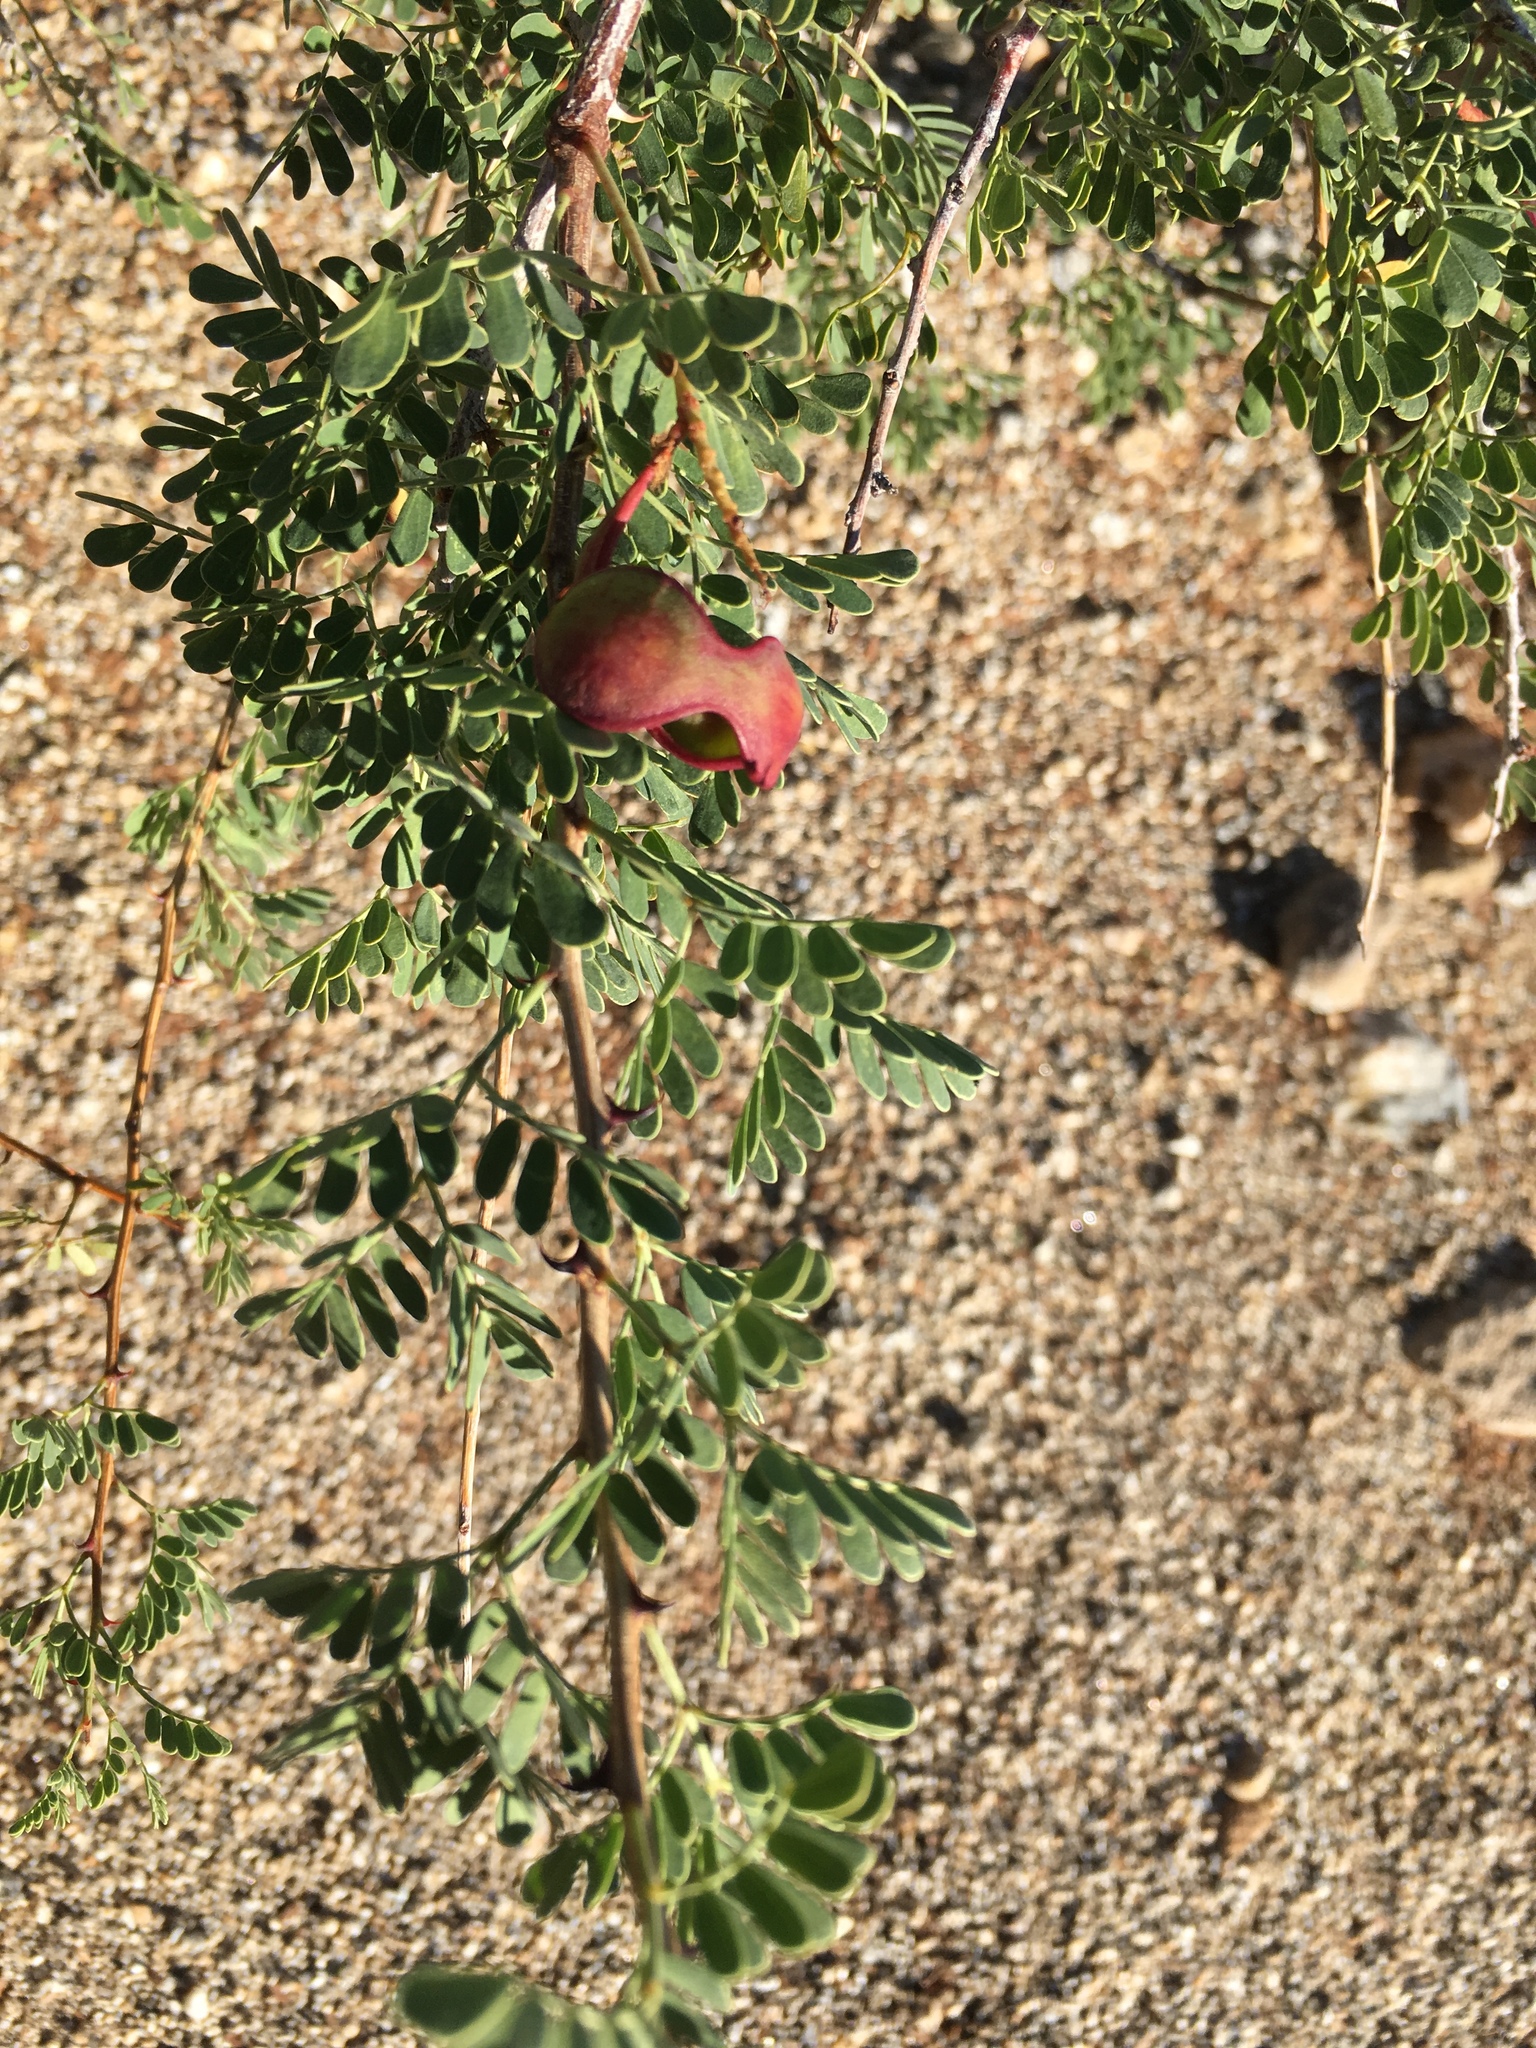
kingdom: Plantae
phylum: Tracheophyta
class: Magnoliopsida
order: Fabales
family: Fabaceae
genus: Senegalia
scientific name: Senegalia greggii
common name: Texas-mimosa
